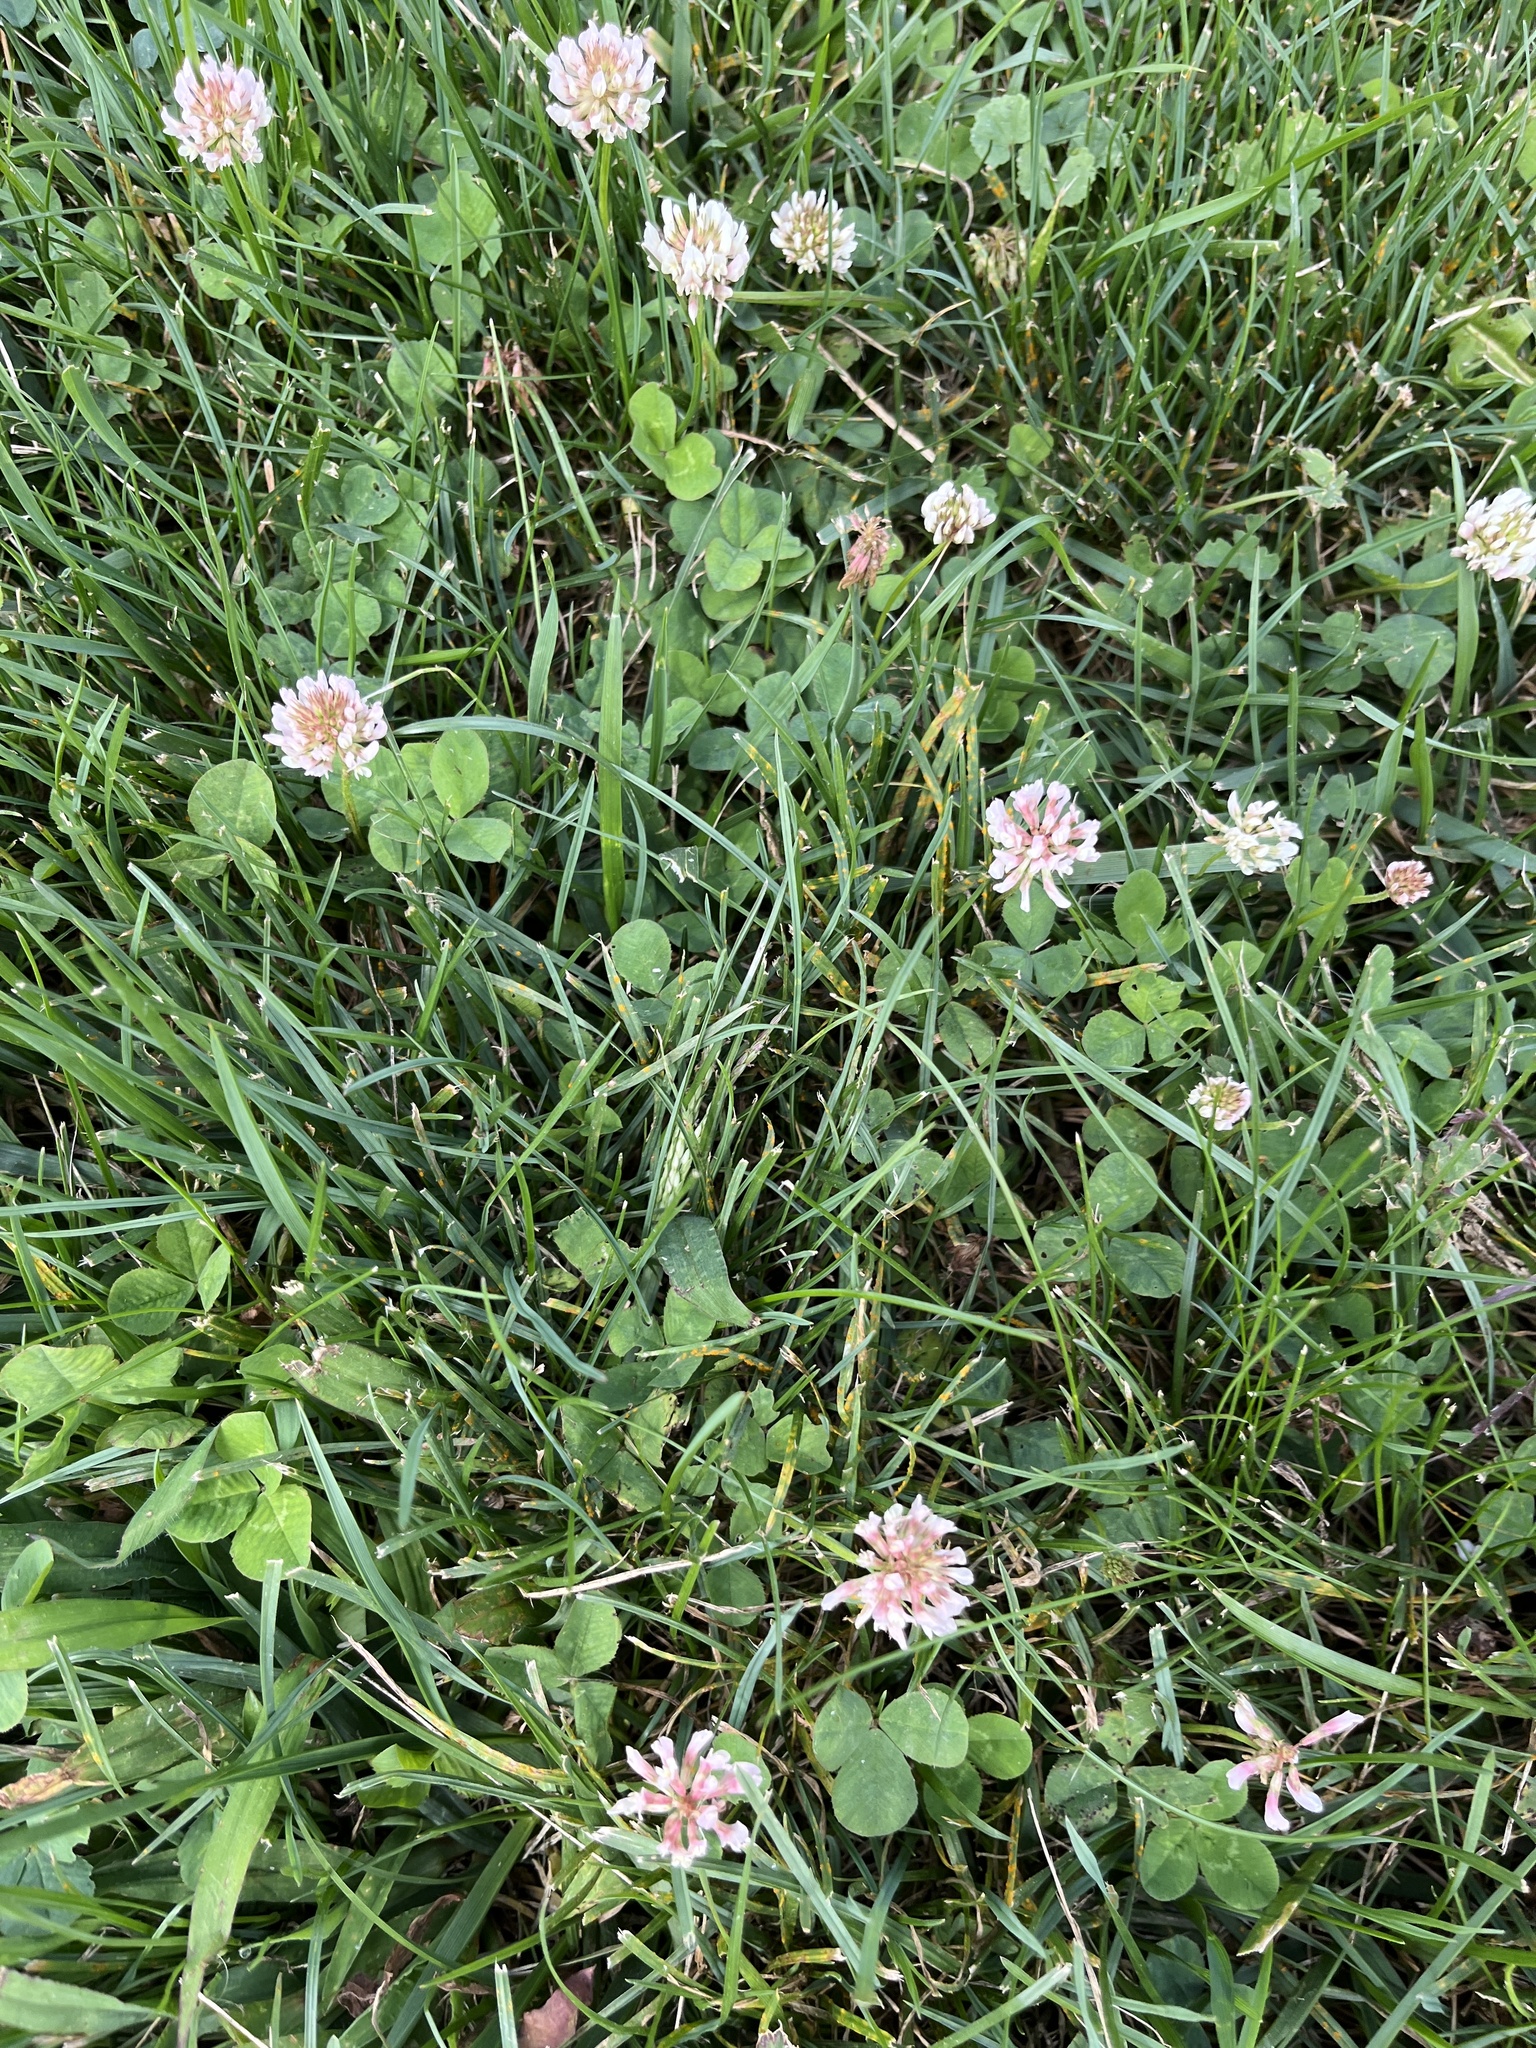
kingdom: Plantae
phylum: Tracheophyta
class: Magnoliopsida
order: Fabales
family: Fabaceae
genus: Trifolium
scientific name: Trifolium repens
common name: White clover
